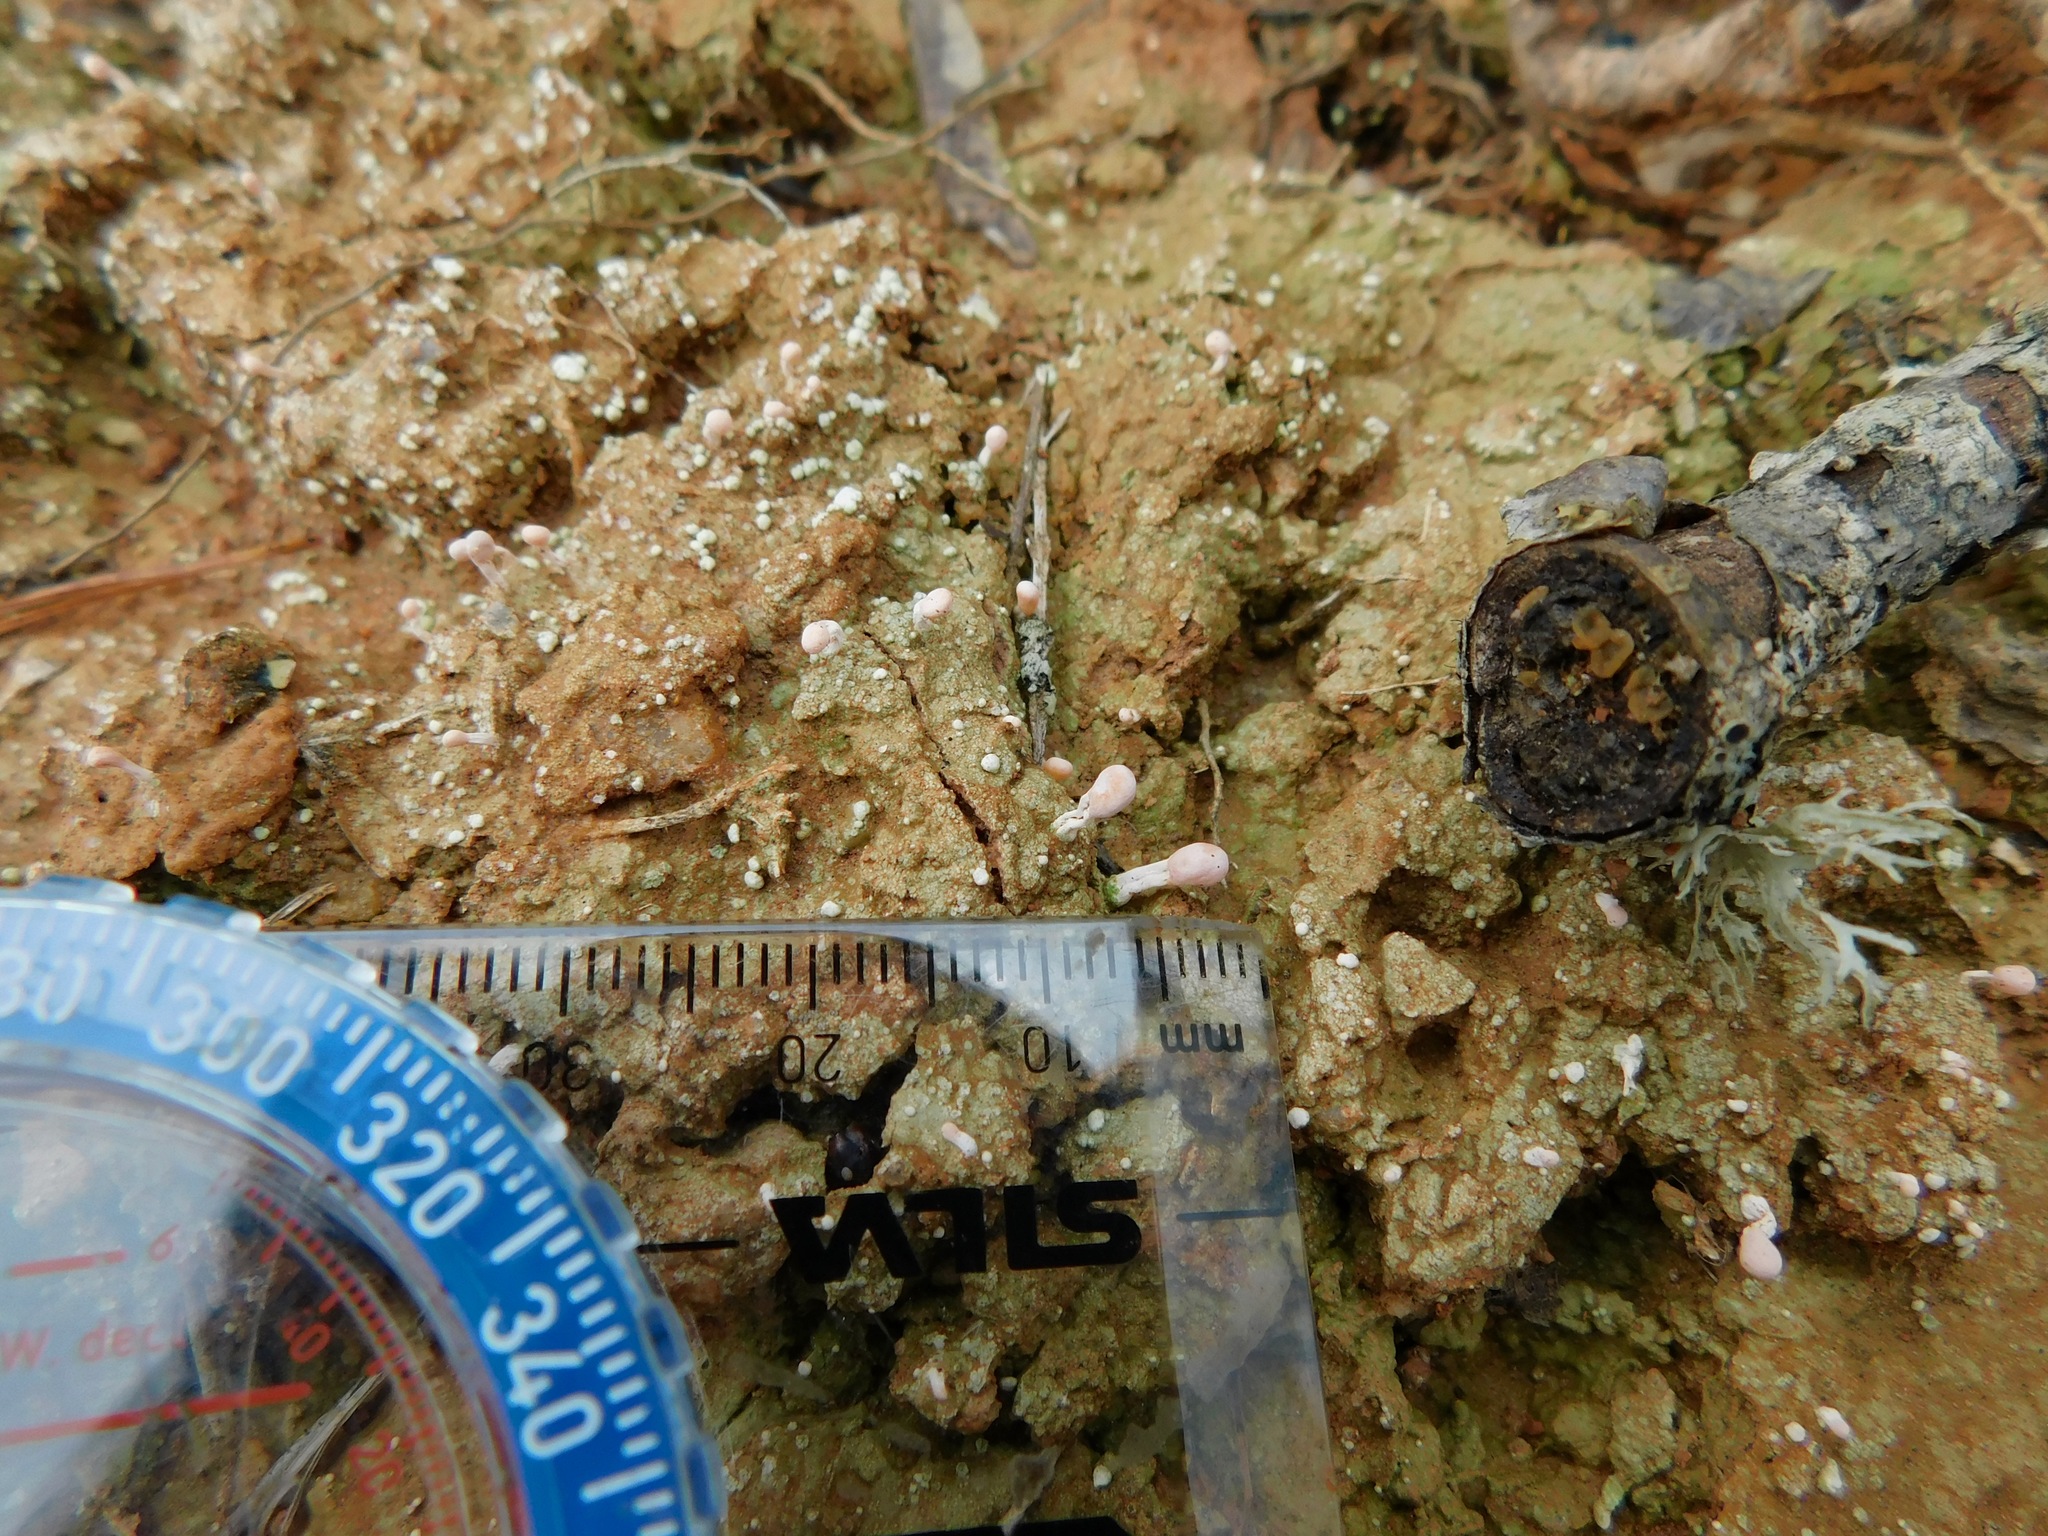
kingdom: Fungi
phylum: Ascomycota
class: Lecanoromycetes
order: Pertusariales
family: Icmadophilaceae
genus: Dibaeis
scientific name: Dibaeis baeomyces
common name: Pink earth lichen
